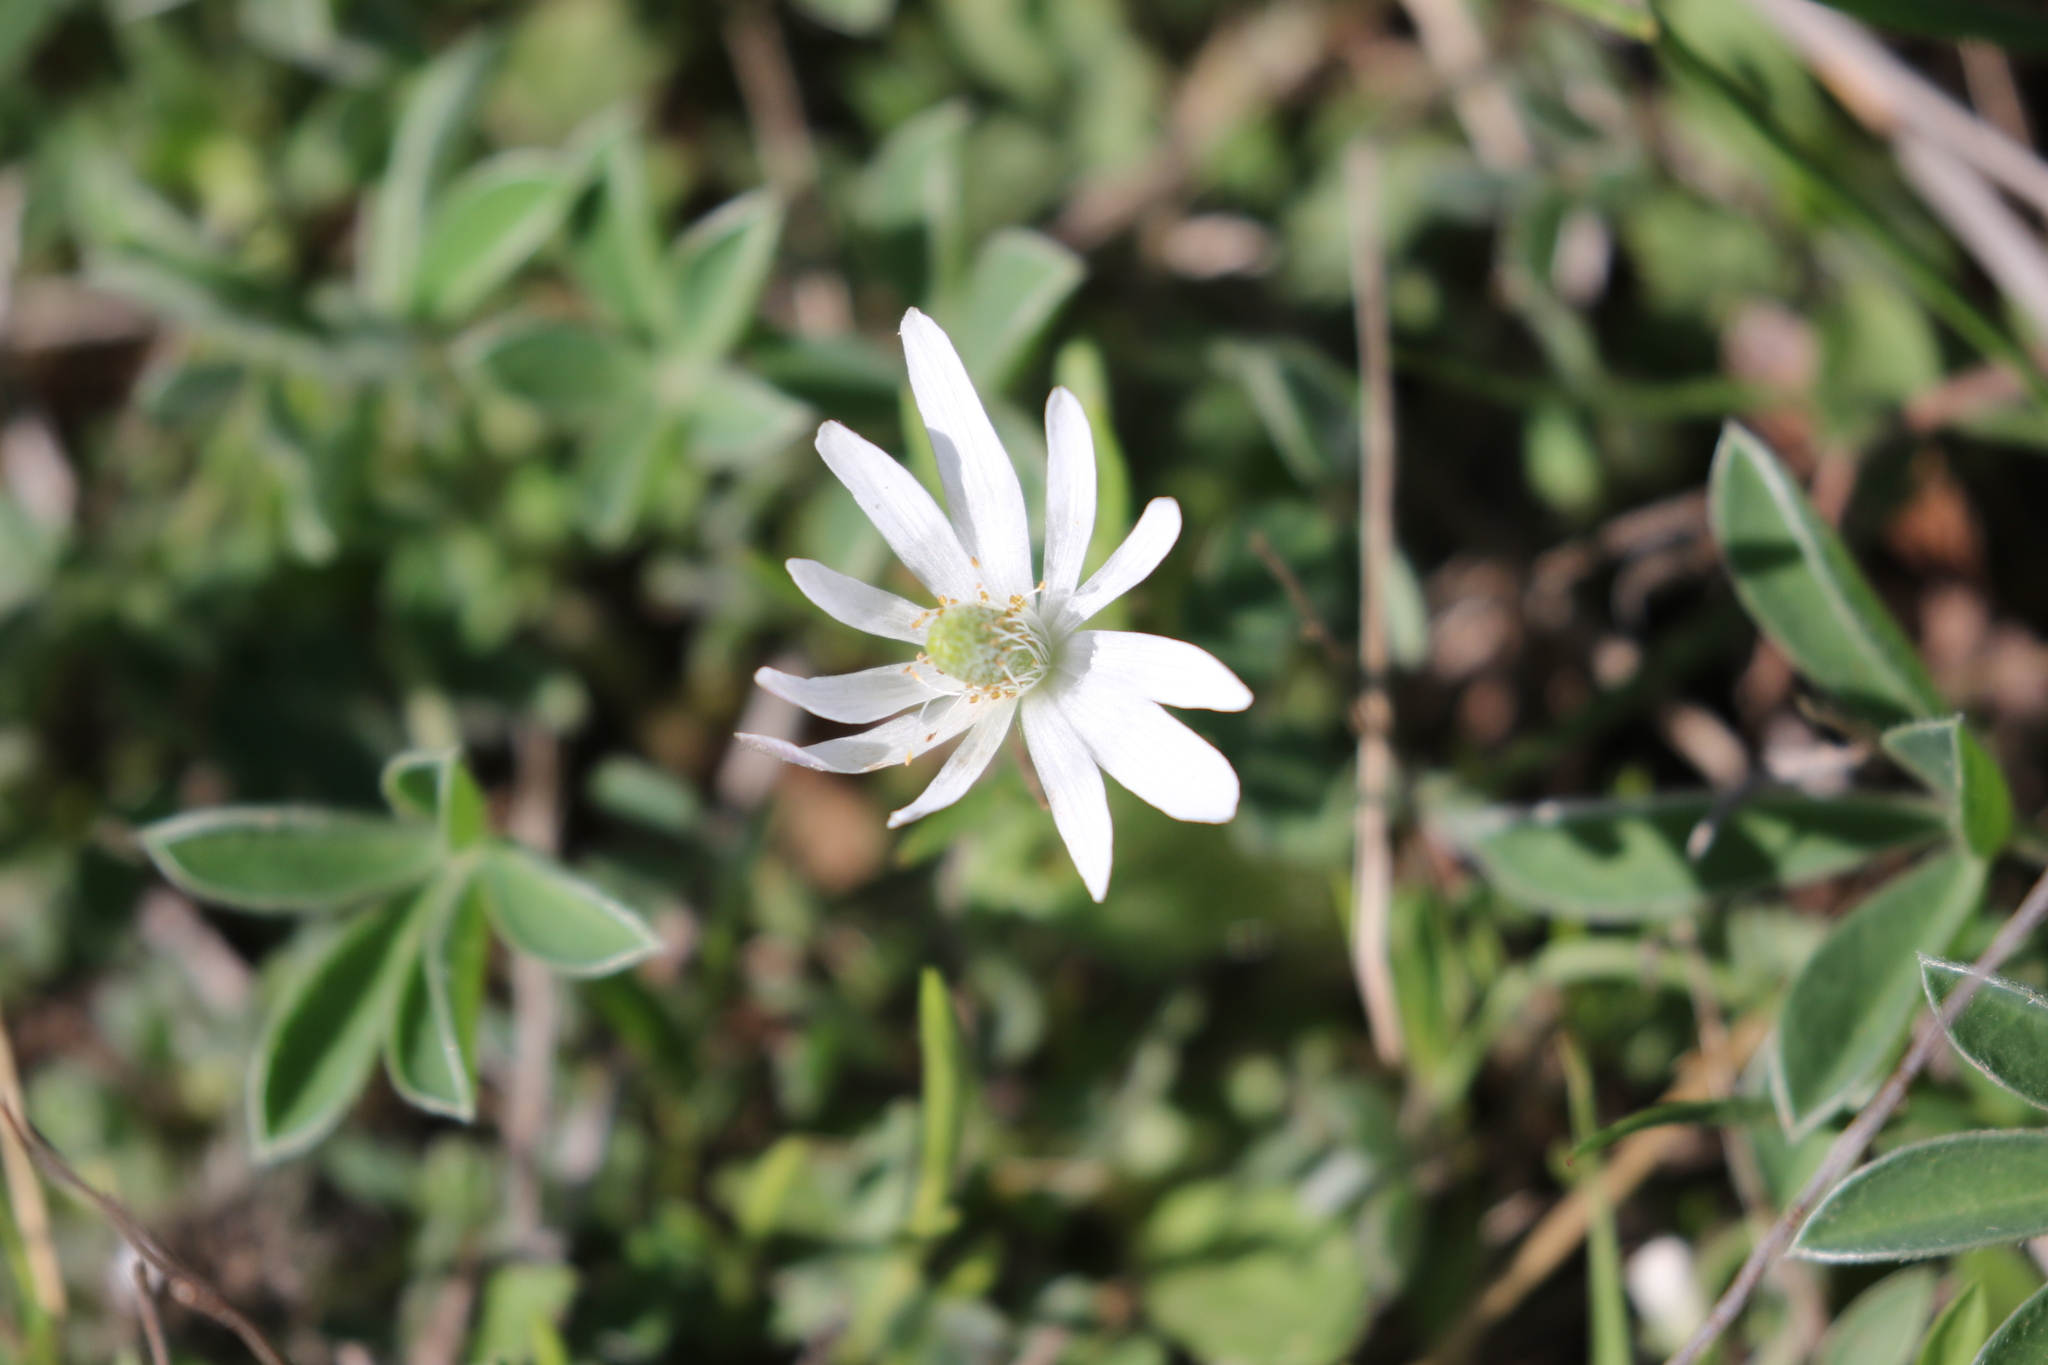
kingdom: Plantae
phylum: Tracheophyta
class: Magnoliopsida
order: Ranunculales
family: Ranunculaceae
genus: Anemone
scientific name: Anemone berlandieri
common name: Ten-petal anemone
